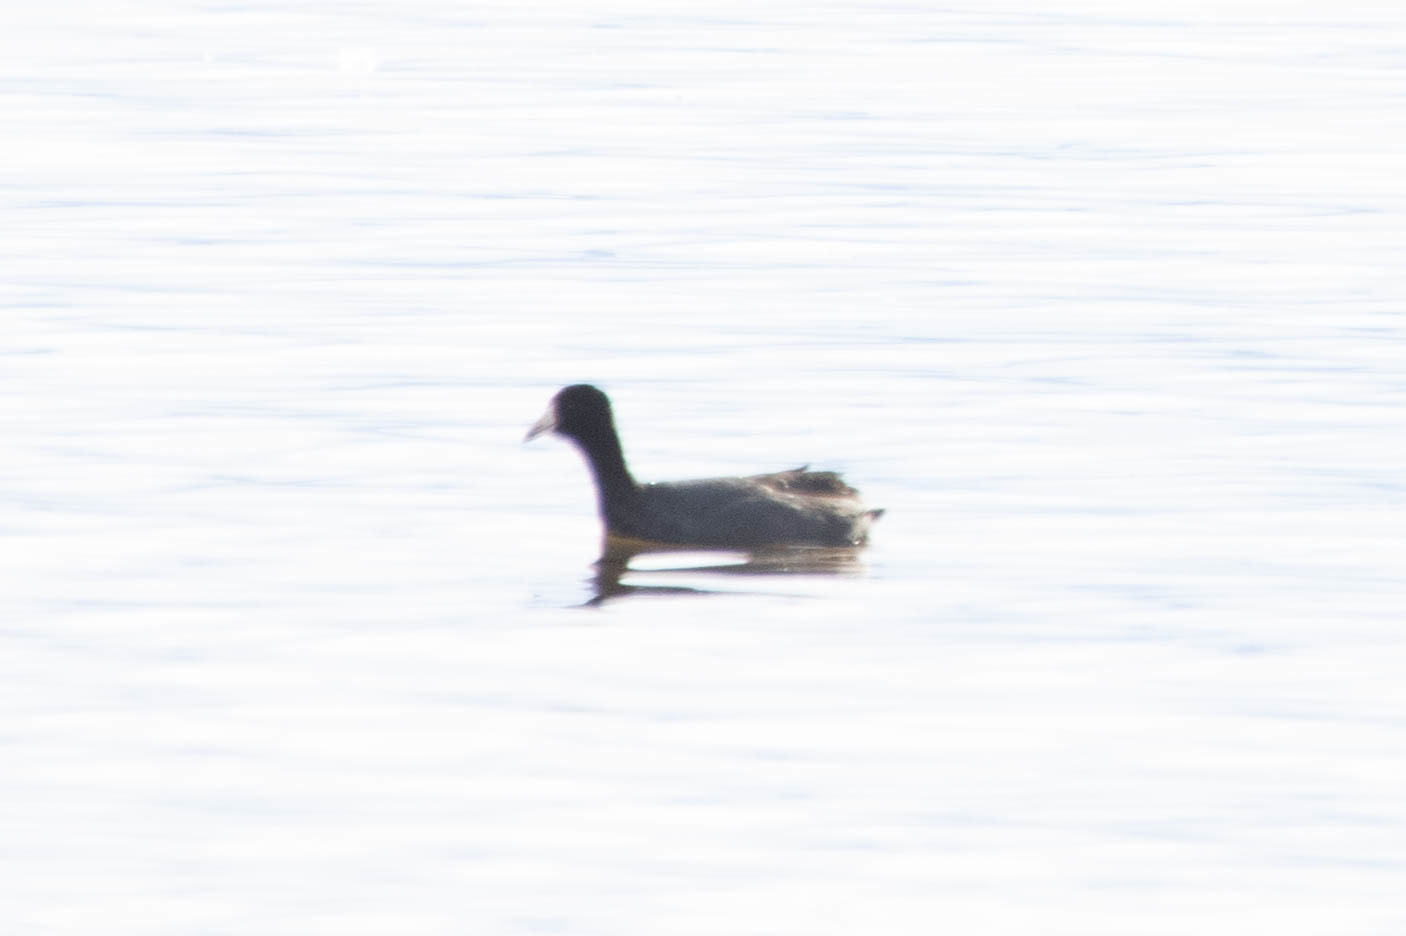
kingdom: Animalia
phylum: Chordata
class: Aves
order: Gruiformes
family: Rallidae
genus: Fulica
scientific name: Fulica americana
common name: American coot
